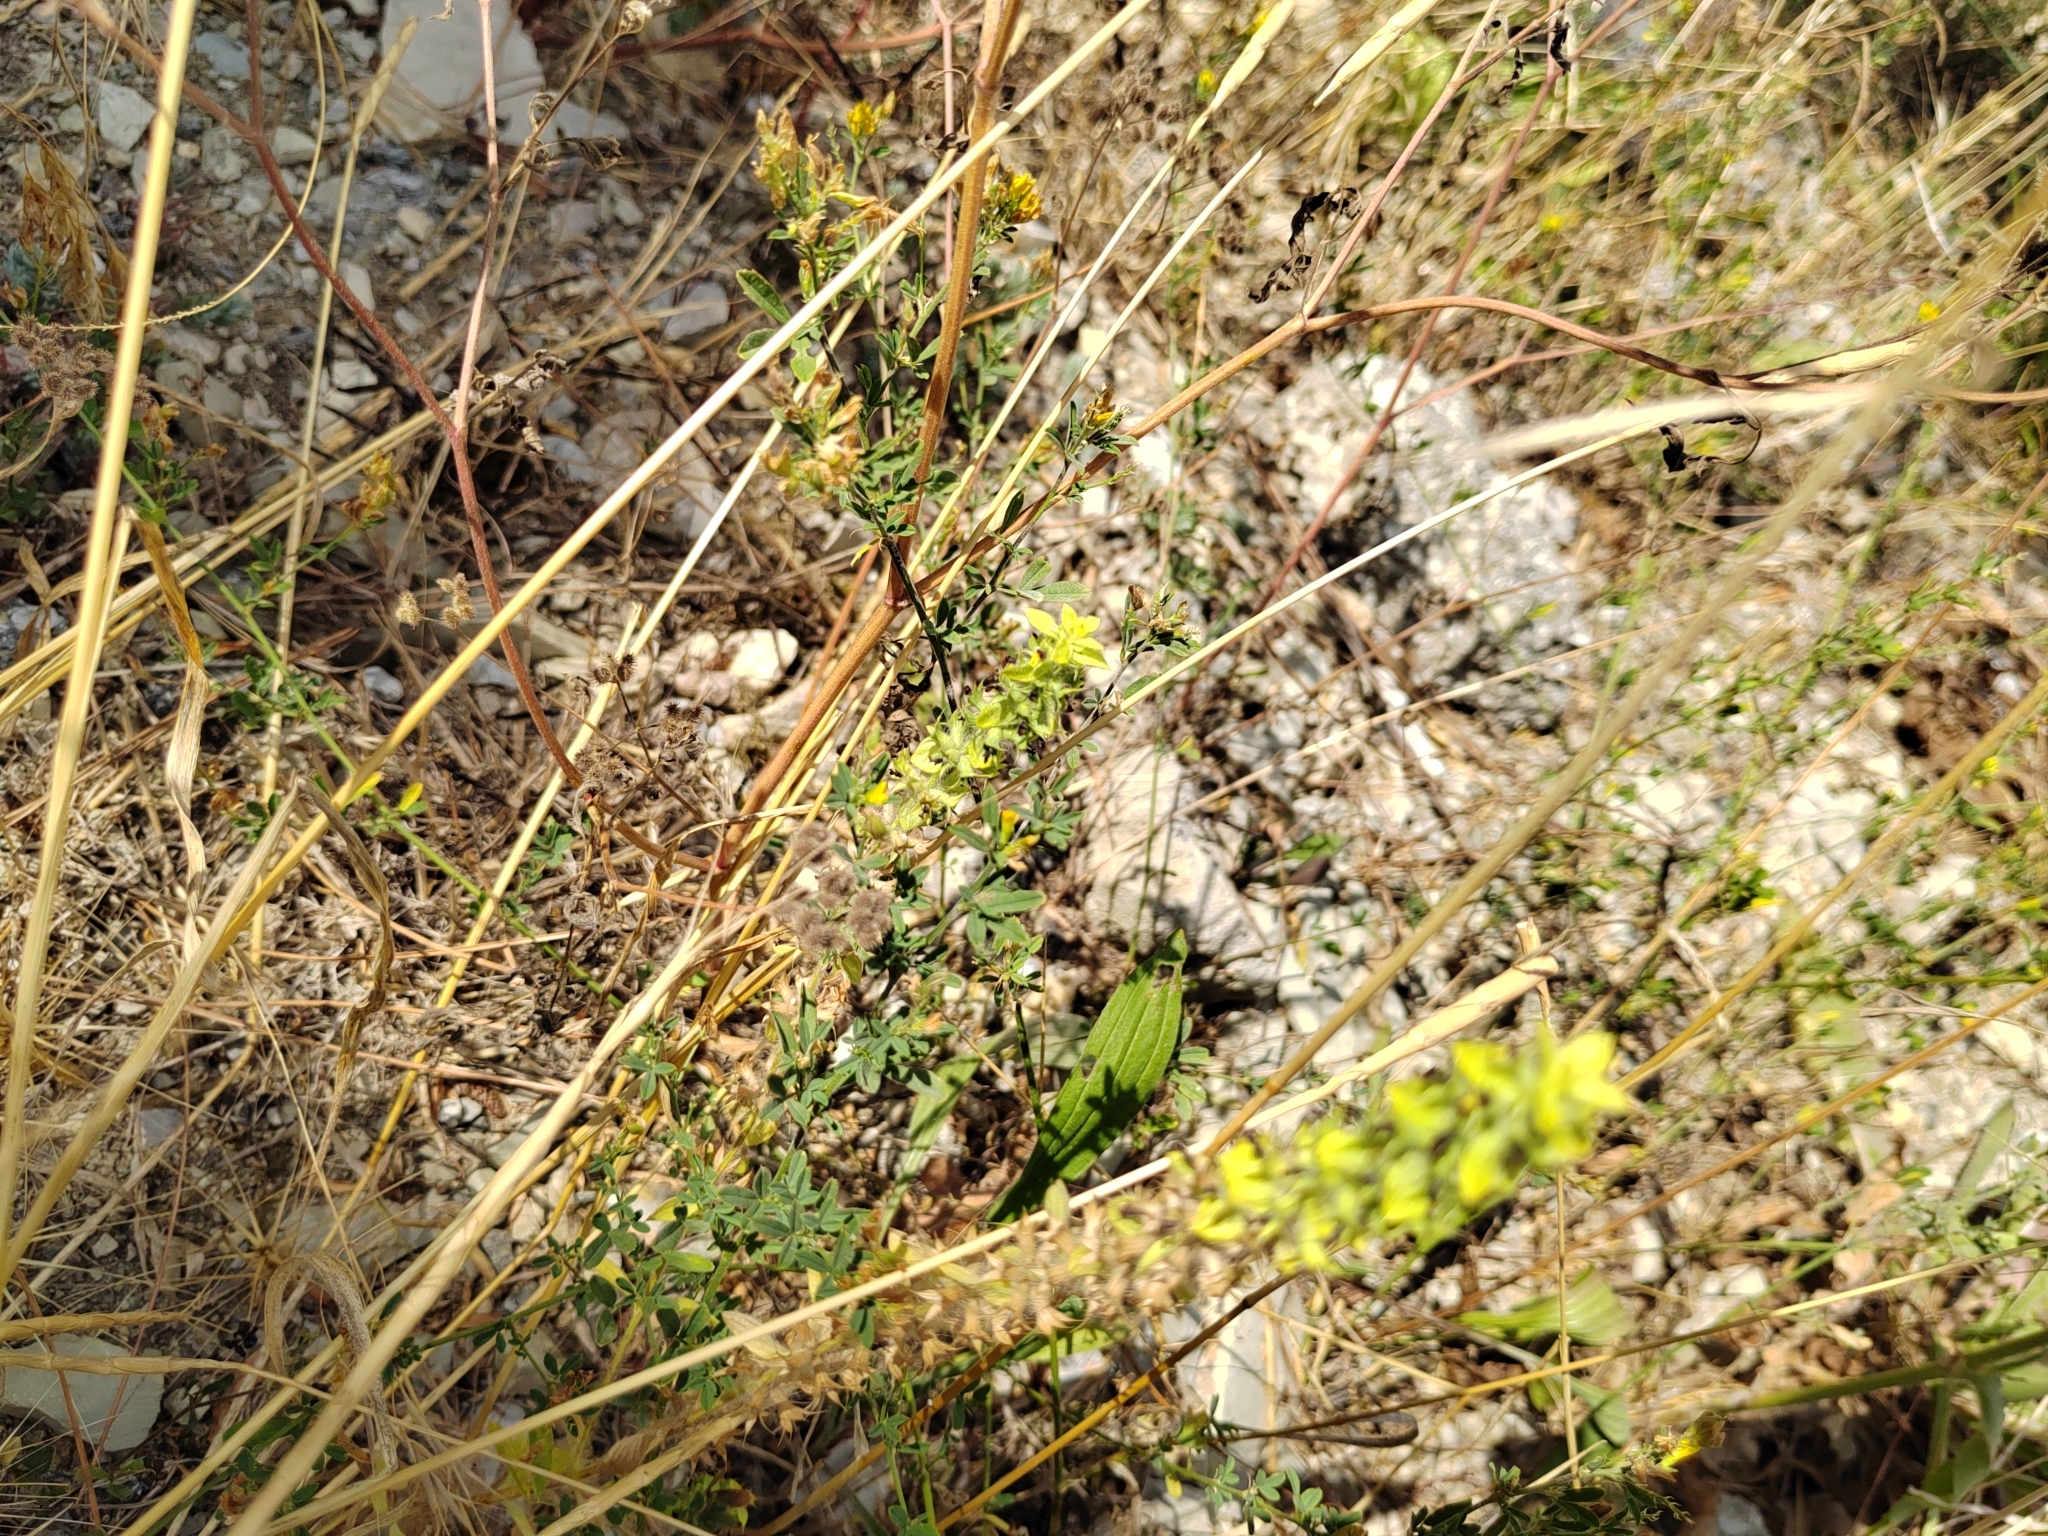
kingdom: Plantae
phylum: Tracheophyta
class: Magnoliopsida
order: Lamiales
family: Lamiaceae
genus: Sideritis
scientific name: Sideritis montana
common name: Mountain ironwort
